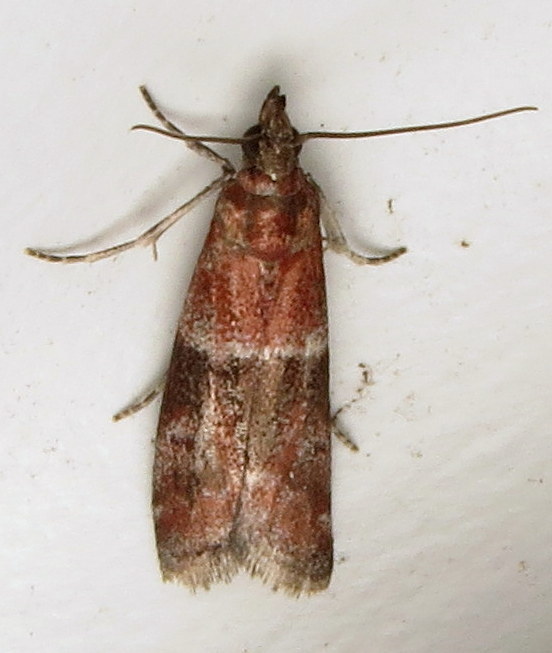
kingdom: Animalia
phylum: Arthropoda
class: Insecta
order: Lepidoptera
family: Pyralidae
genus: Moodna
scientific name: Moodna ostrinella
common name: Darker moodna moth
